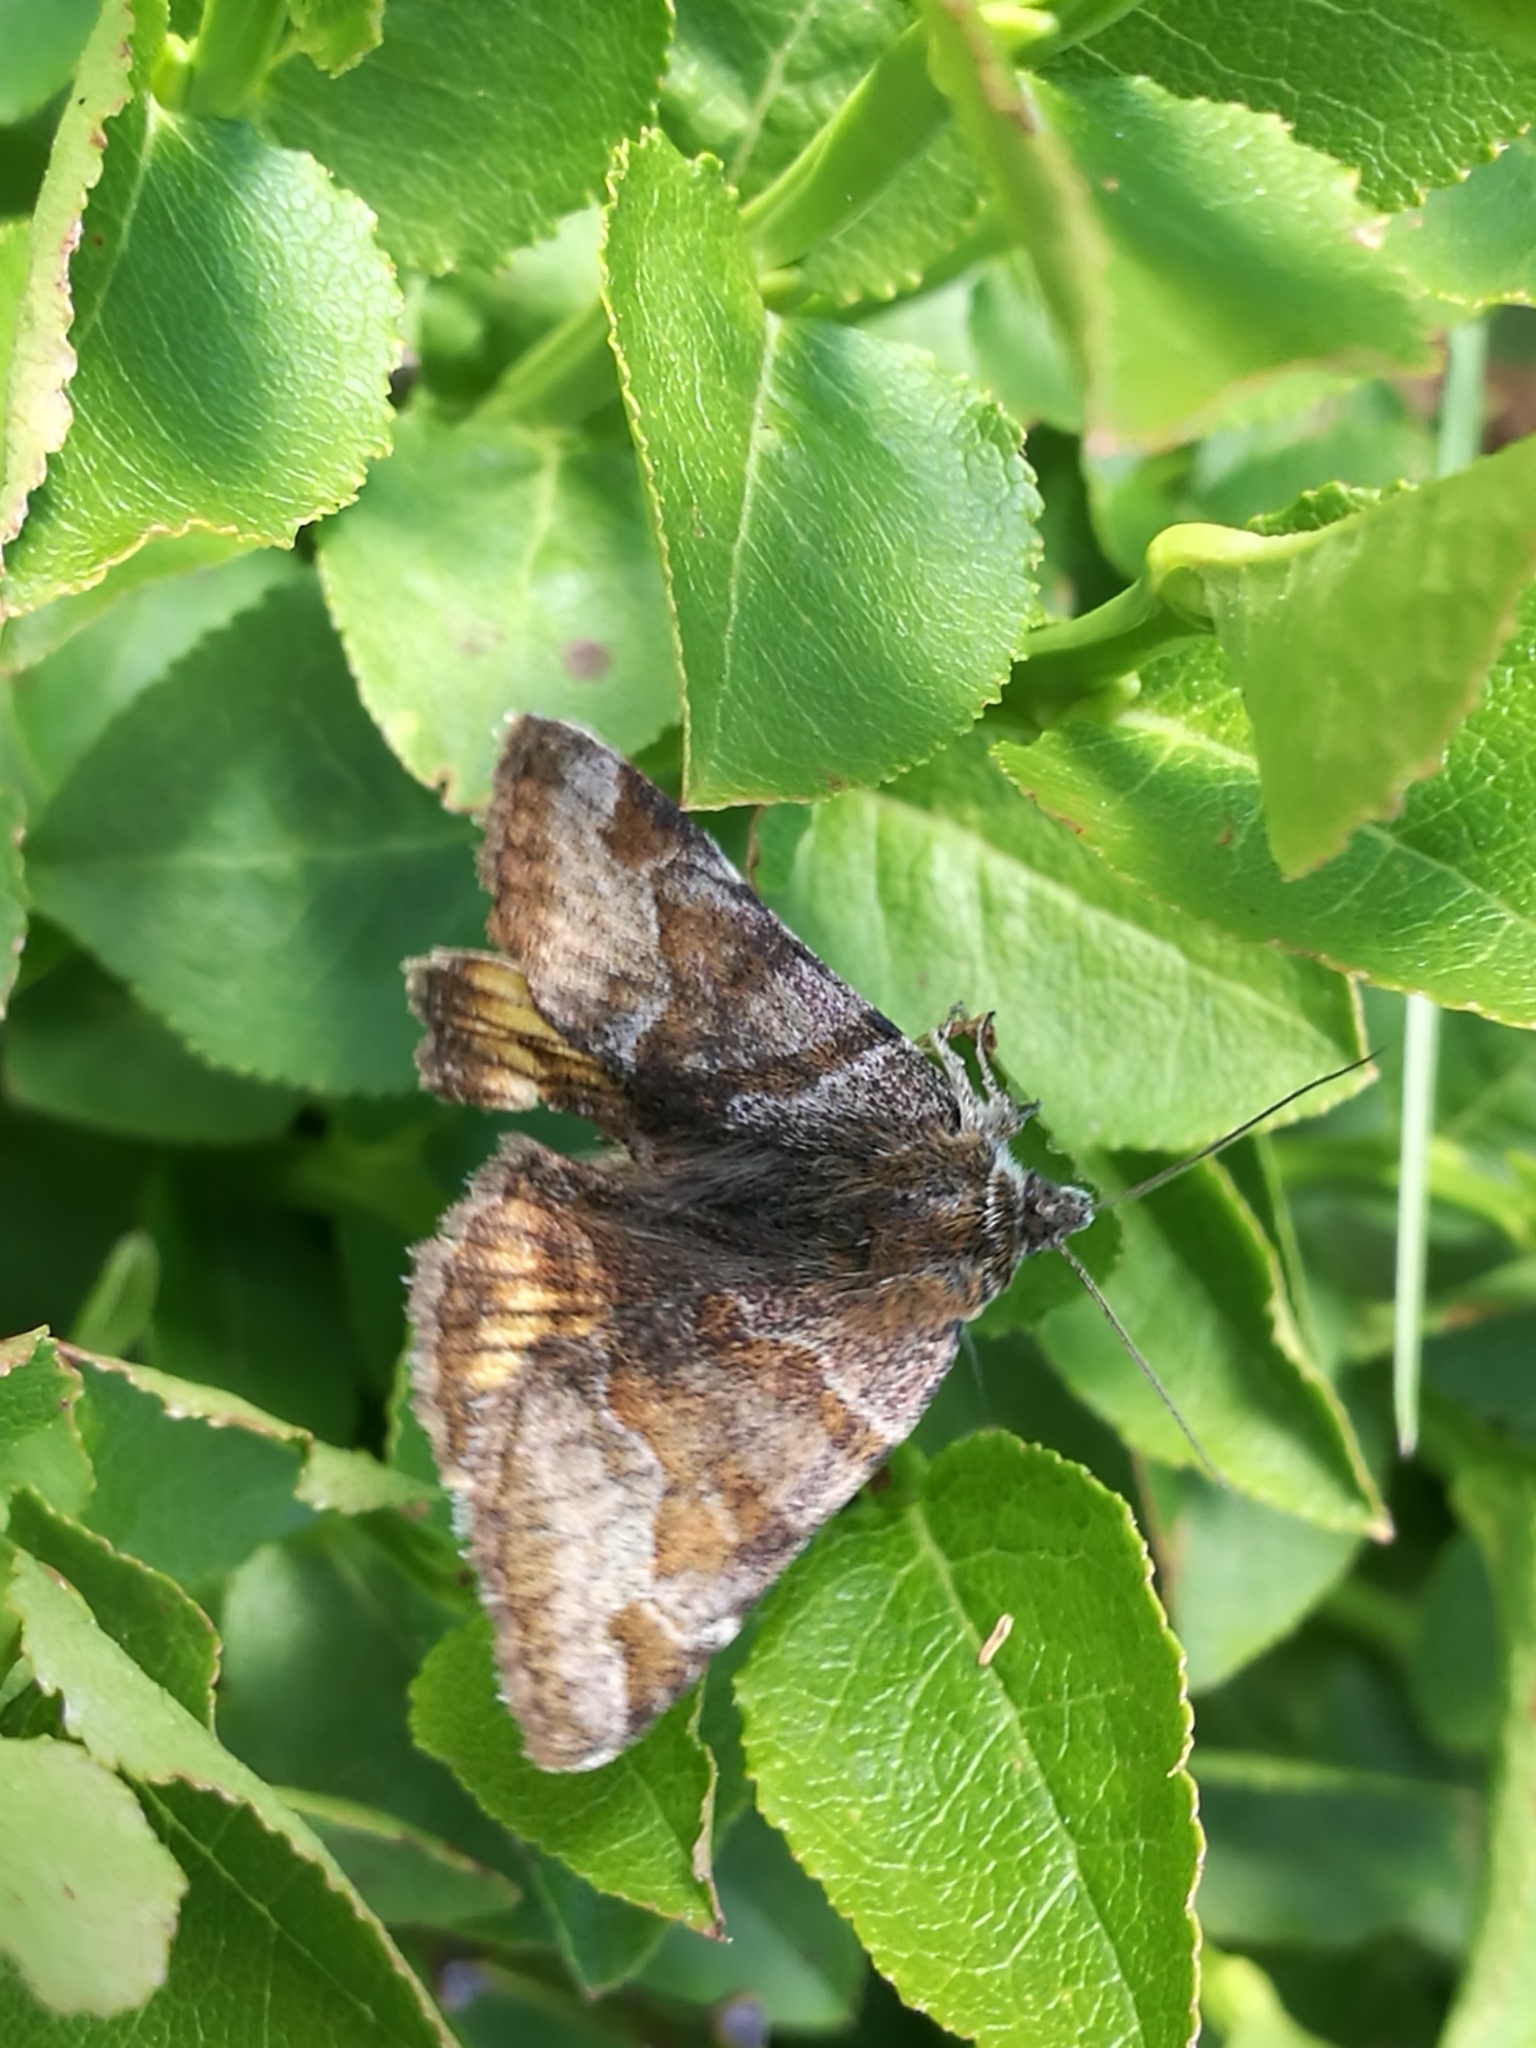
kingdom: Animalia
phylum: Arthropoda
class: Insecta
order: Lepidoptera
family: Erebidae
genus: Euclidia
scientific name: Euclidia glyphica
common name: Burnet companion
